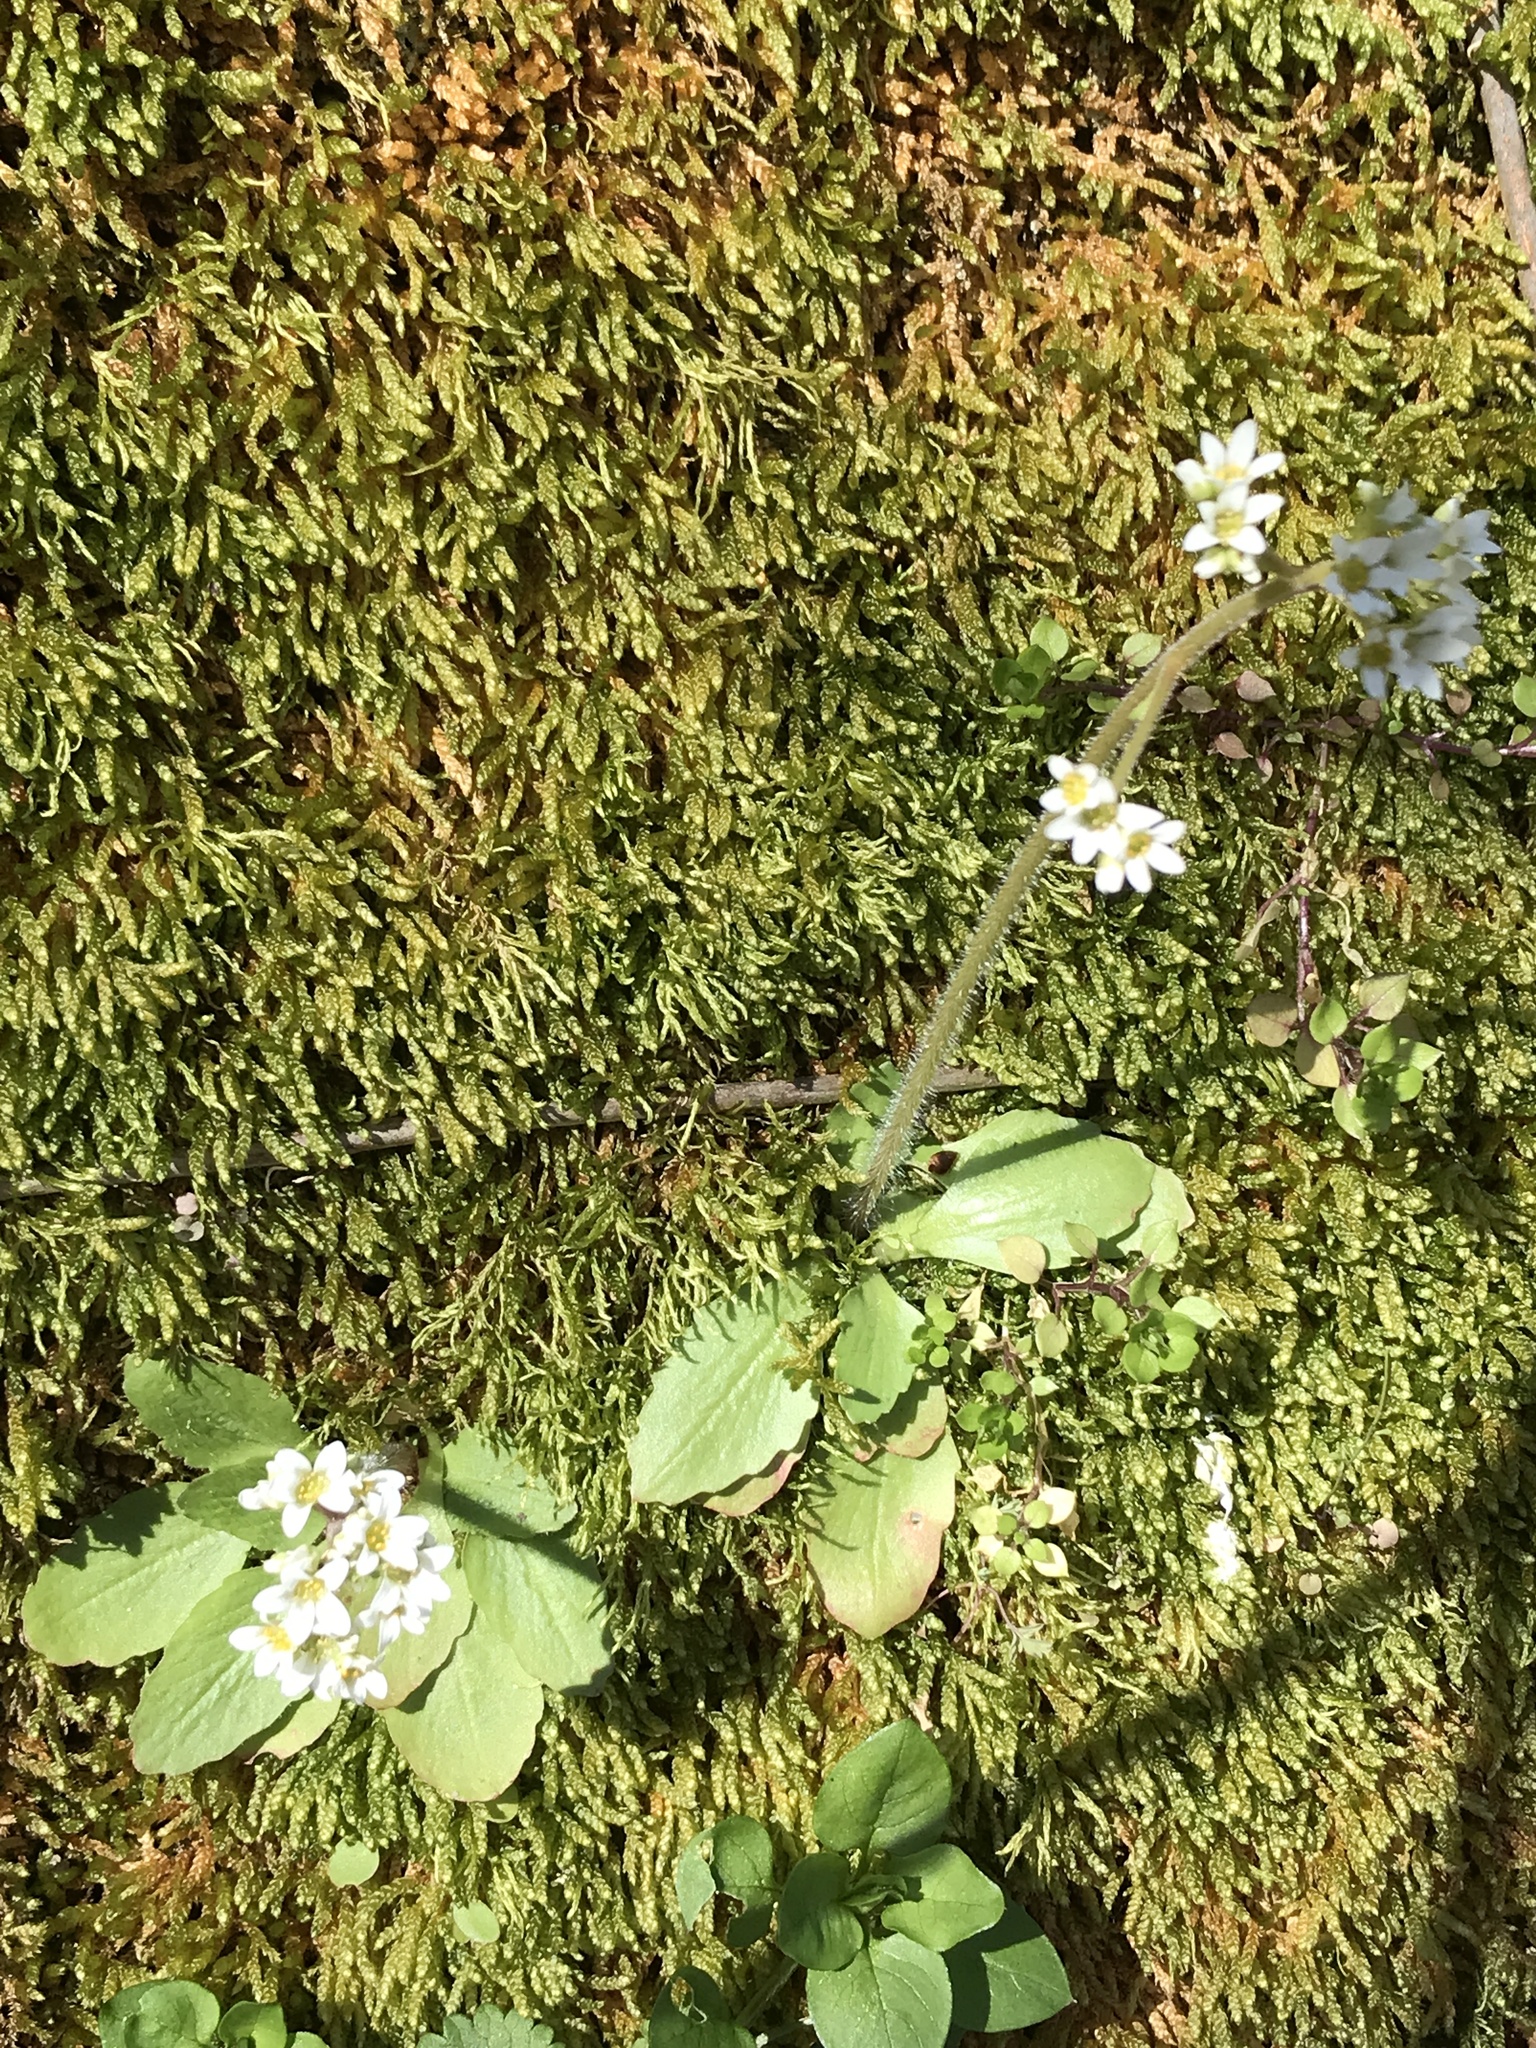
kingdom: Plantae
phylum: Tracheophyta
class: Magnoliopsida
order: Saxifragales
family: Saxifragaceae
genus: Micranthes
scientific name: Micranthes virginiensis
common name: Early saxifrage
